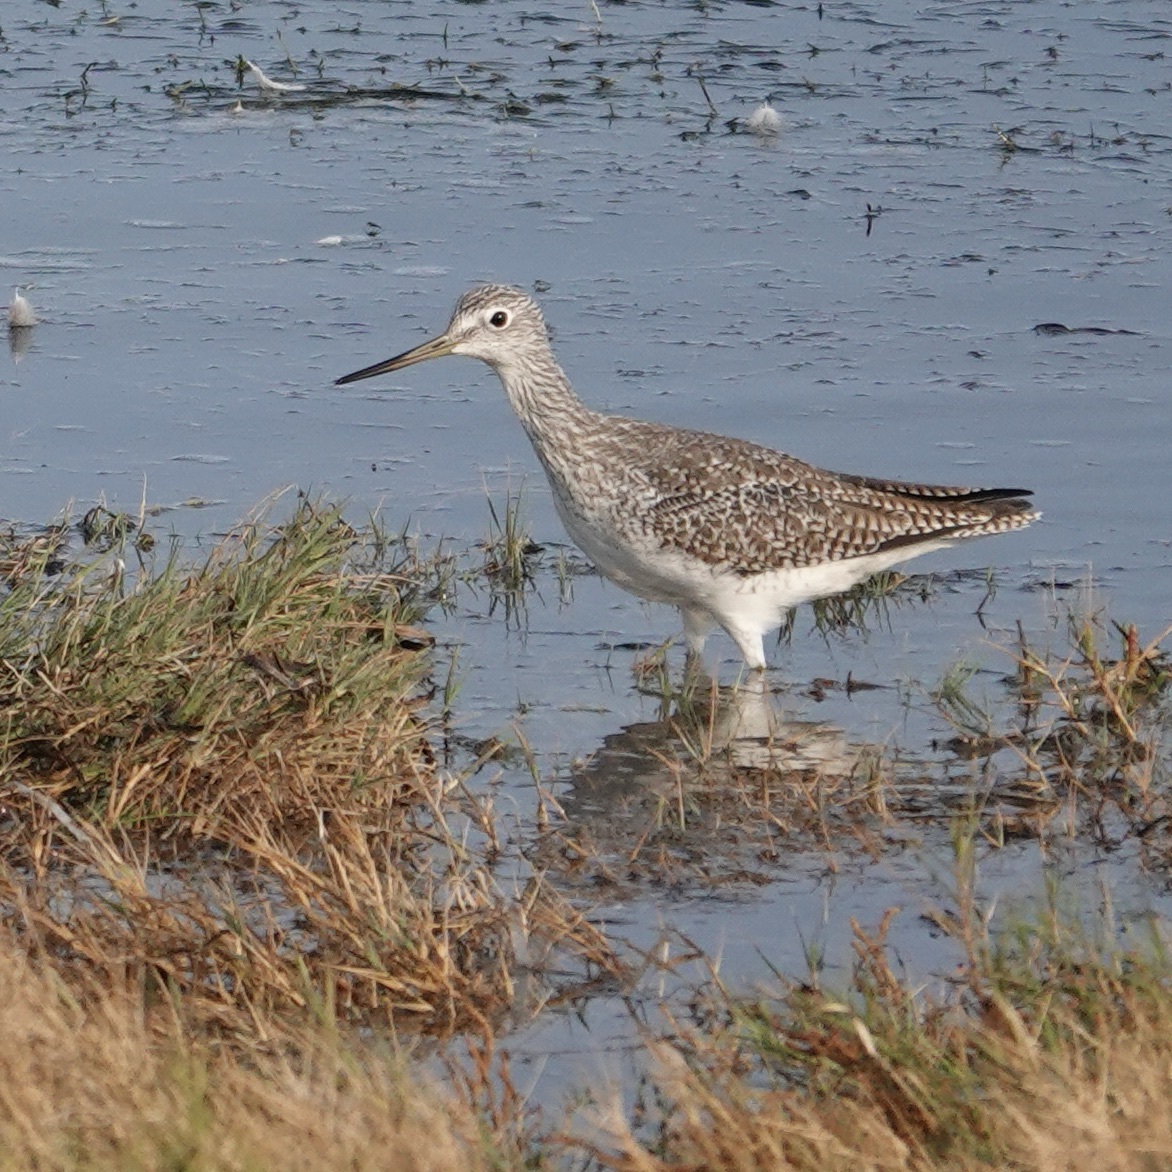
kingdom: Animalia
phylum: Chordata
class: Aves
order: Charadriiformes
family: Scolopacidae
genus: Tringa
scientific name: Tringa melanoleuca
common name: Greater yellowlegs
